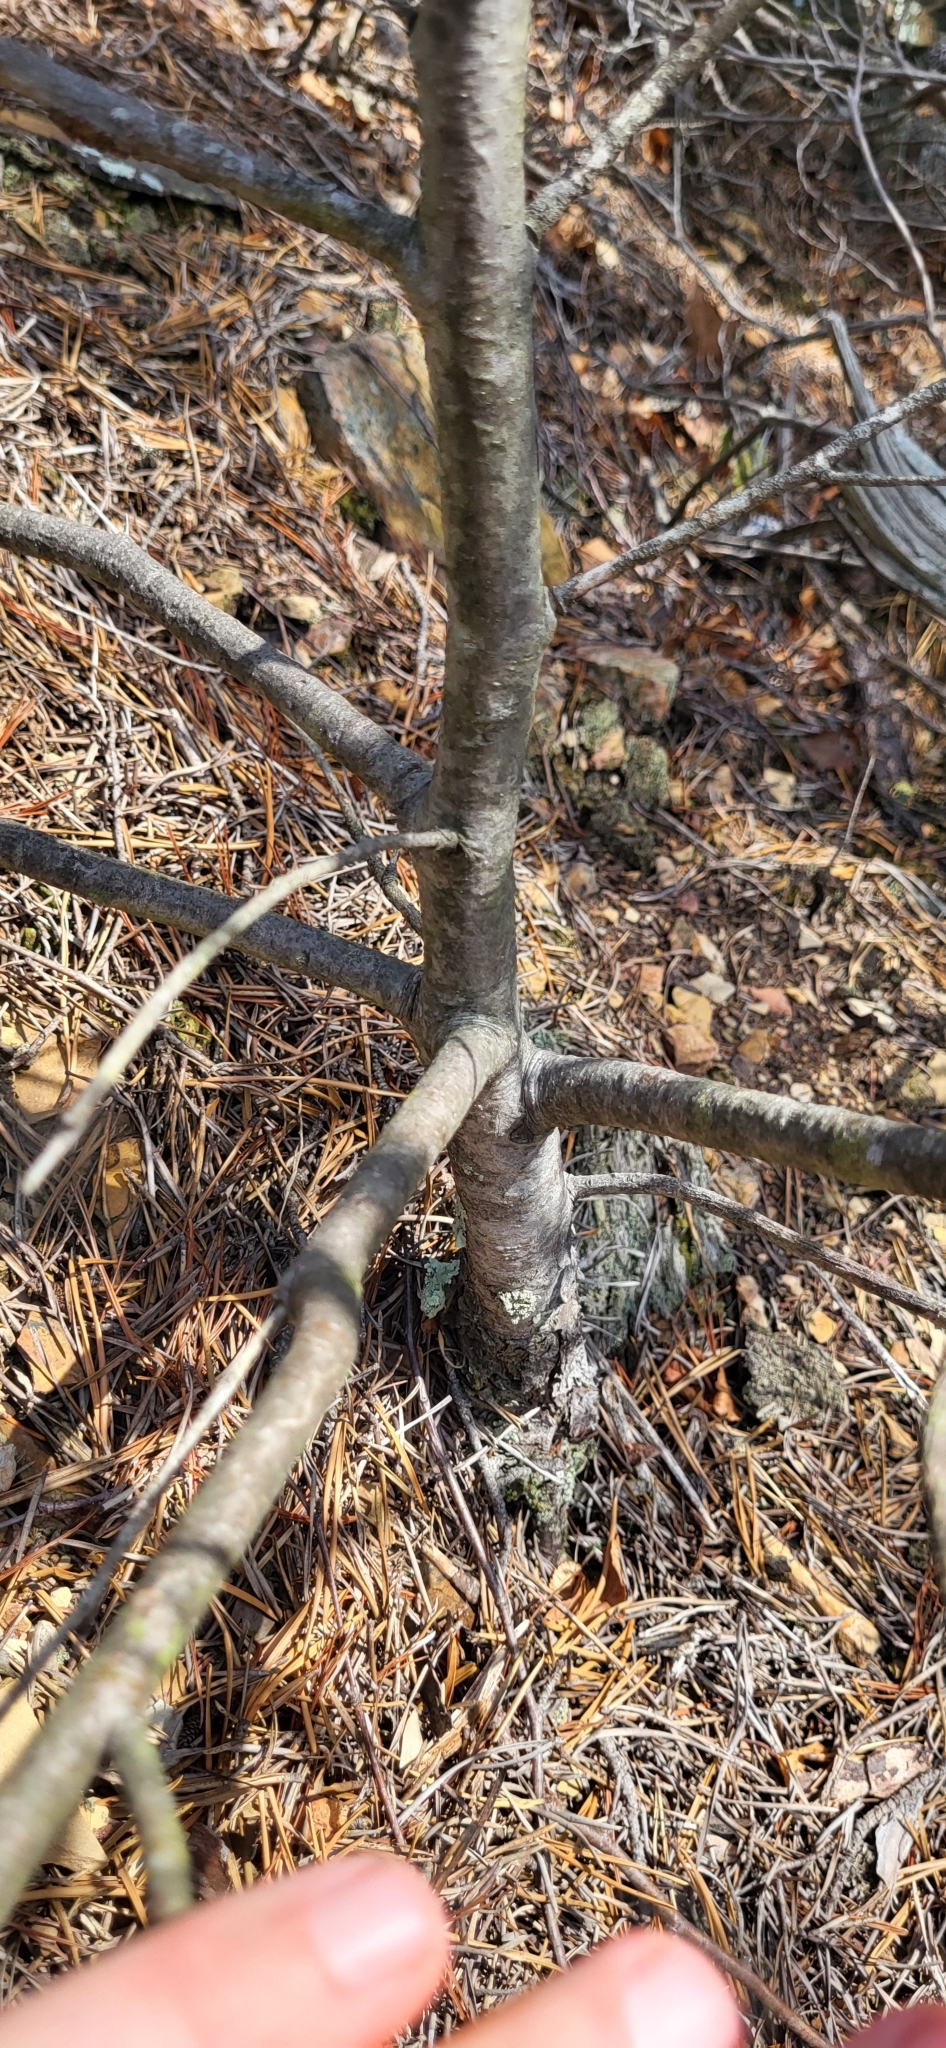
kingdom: Plantae
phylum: Tracheophyta
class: Pinopsida
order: Pinales
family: Pinaceae
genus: Pinus
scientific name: Pinus strobus
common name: Weymouth pine
